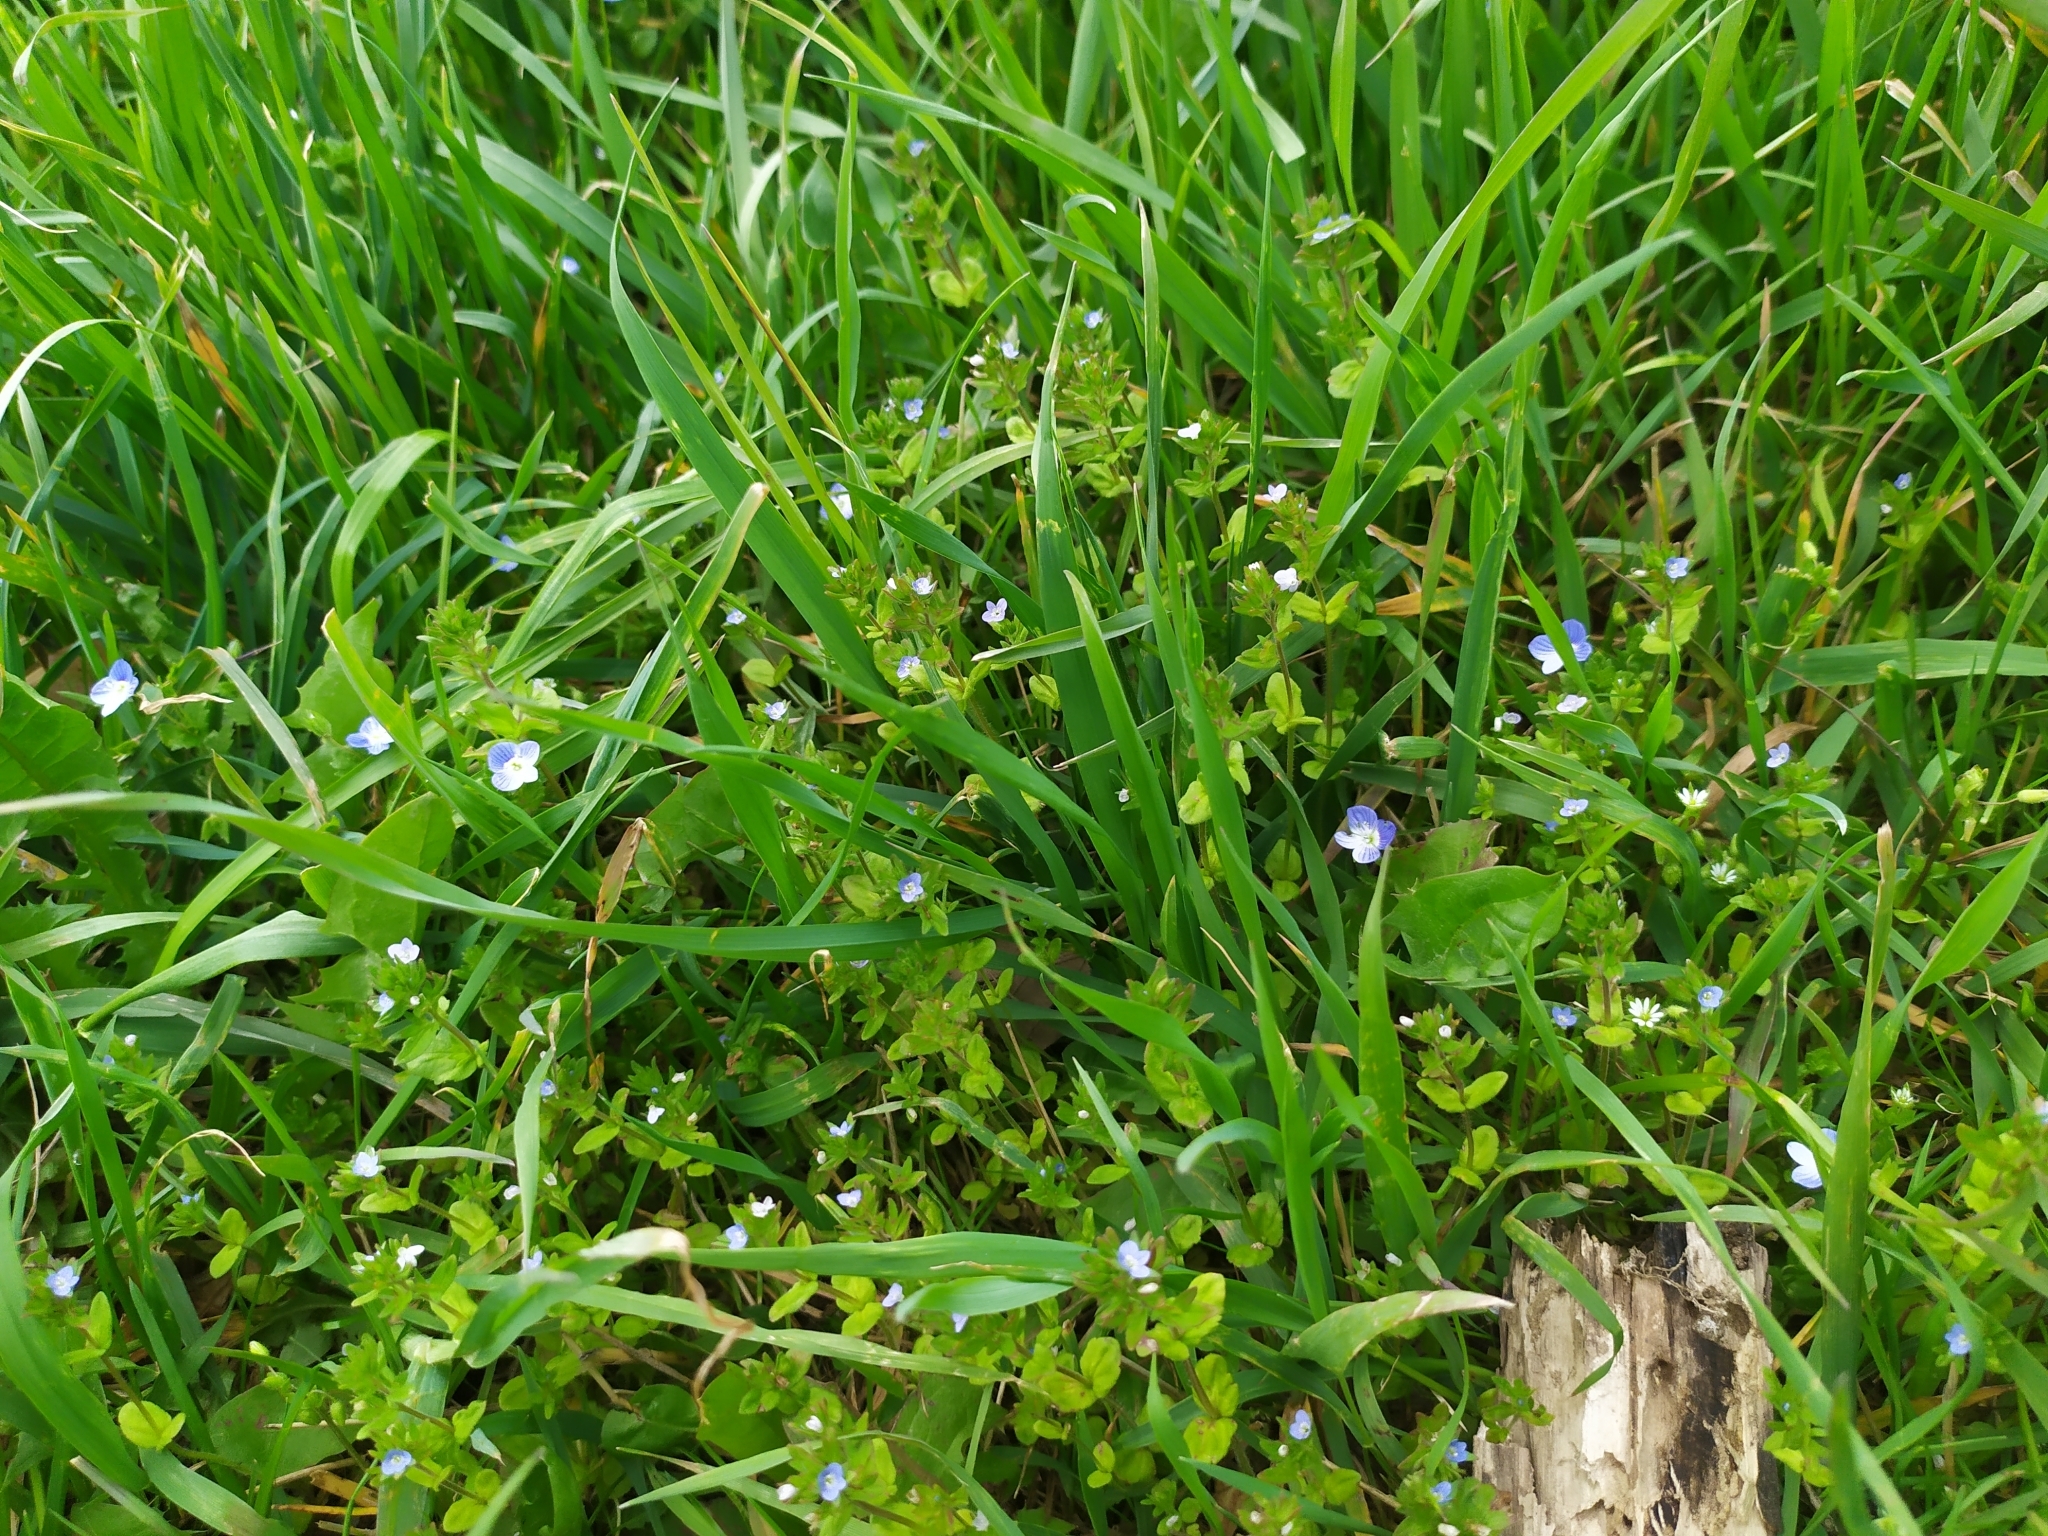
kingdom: Plantae
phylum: Tracheophyta
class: Magnoliopsida
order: Lamiales
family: Plantaginaceae
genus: Veronica
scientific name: Veronica persica
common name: Common field-speedwell
